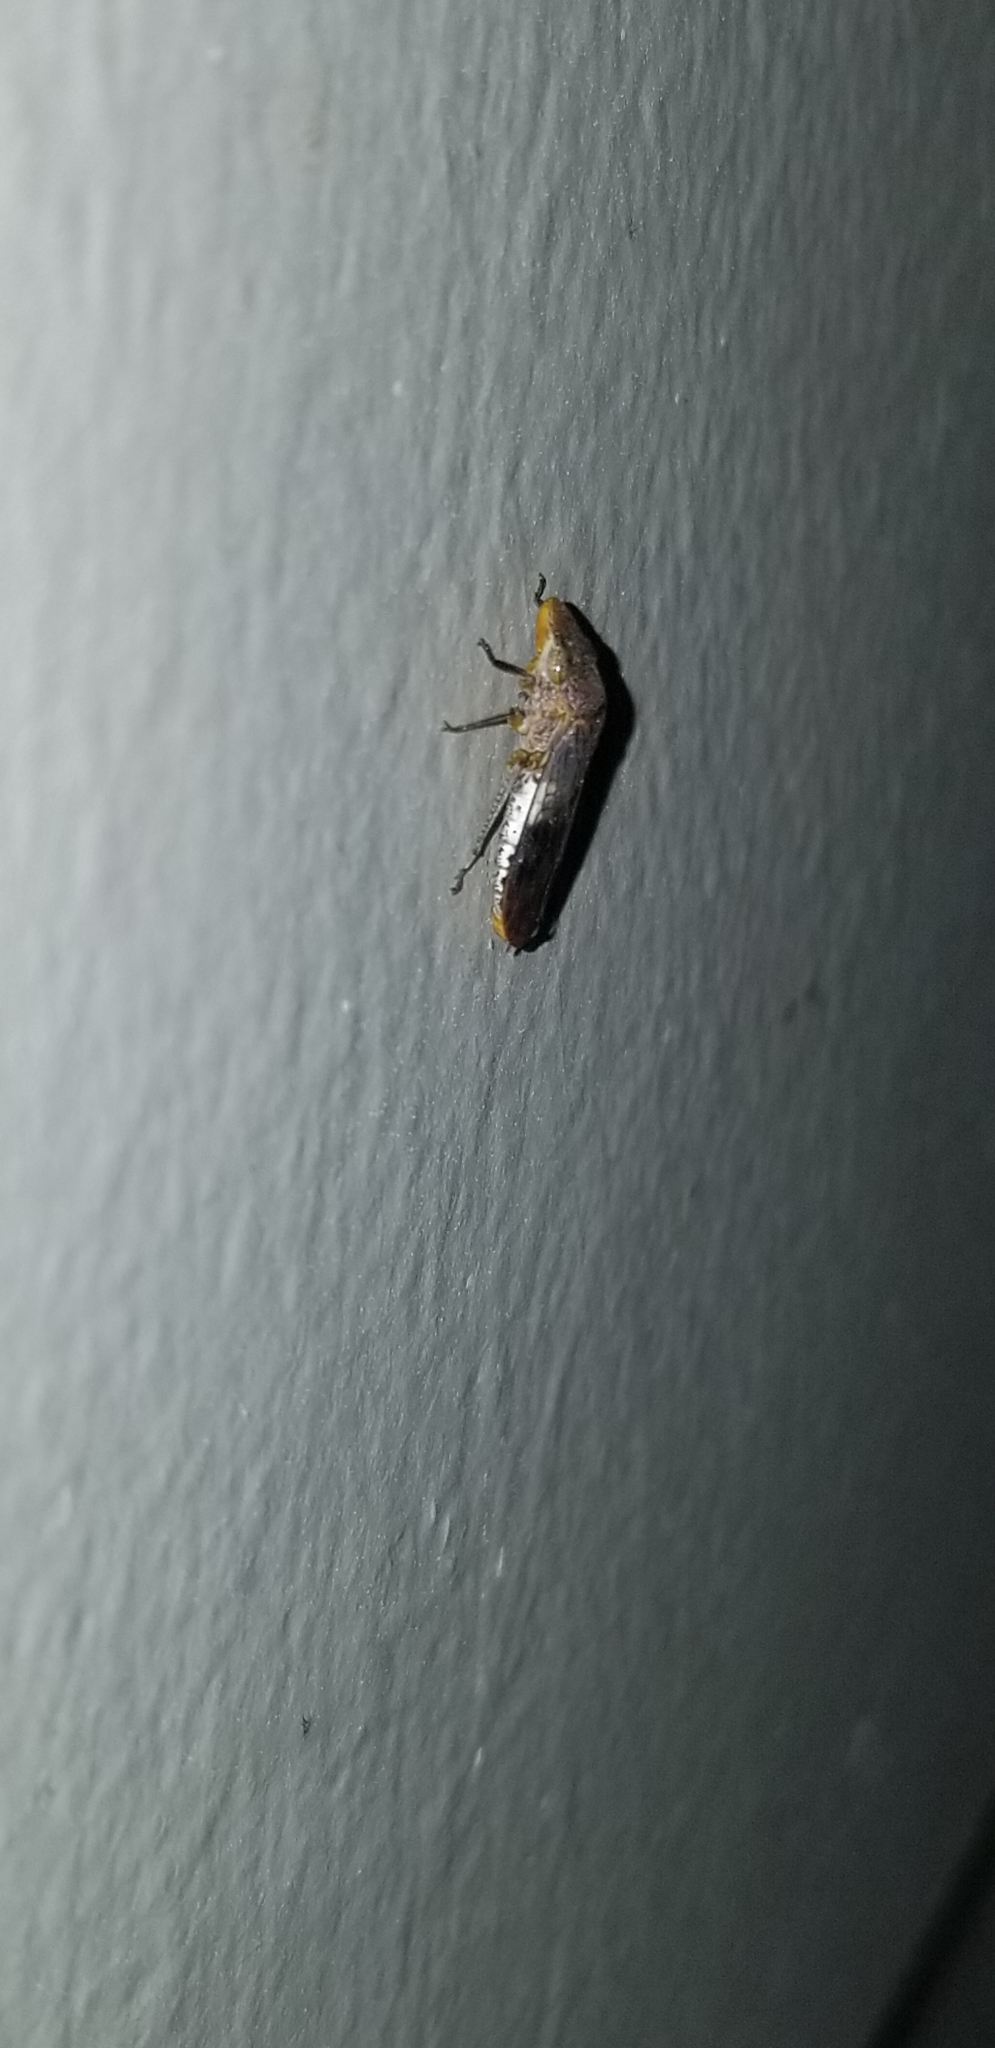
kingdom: Animalia
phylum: Arthropoda
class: Insecta
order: Hemiptera
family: Cicadellidae
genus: Homalodisca
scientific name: Homalodisca vitripennis
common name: Glassy-winged sharpshooter
